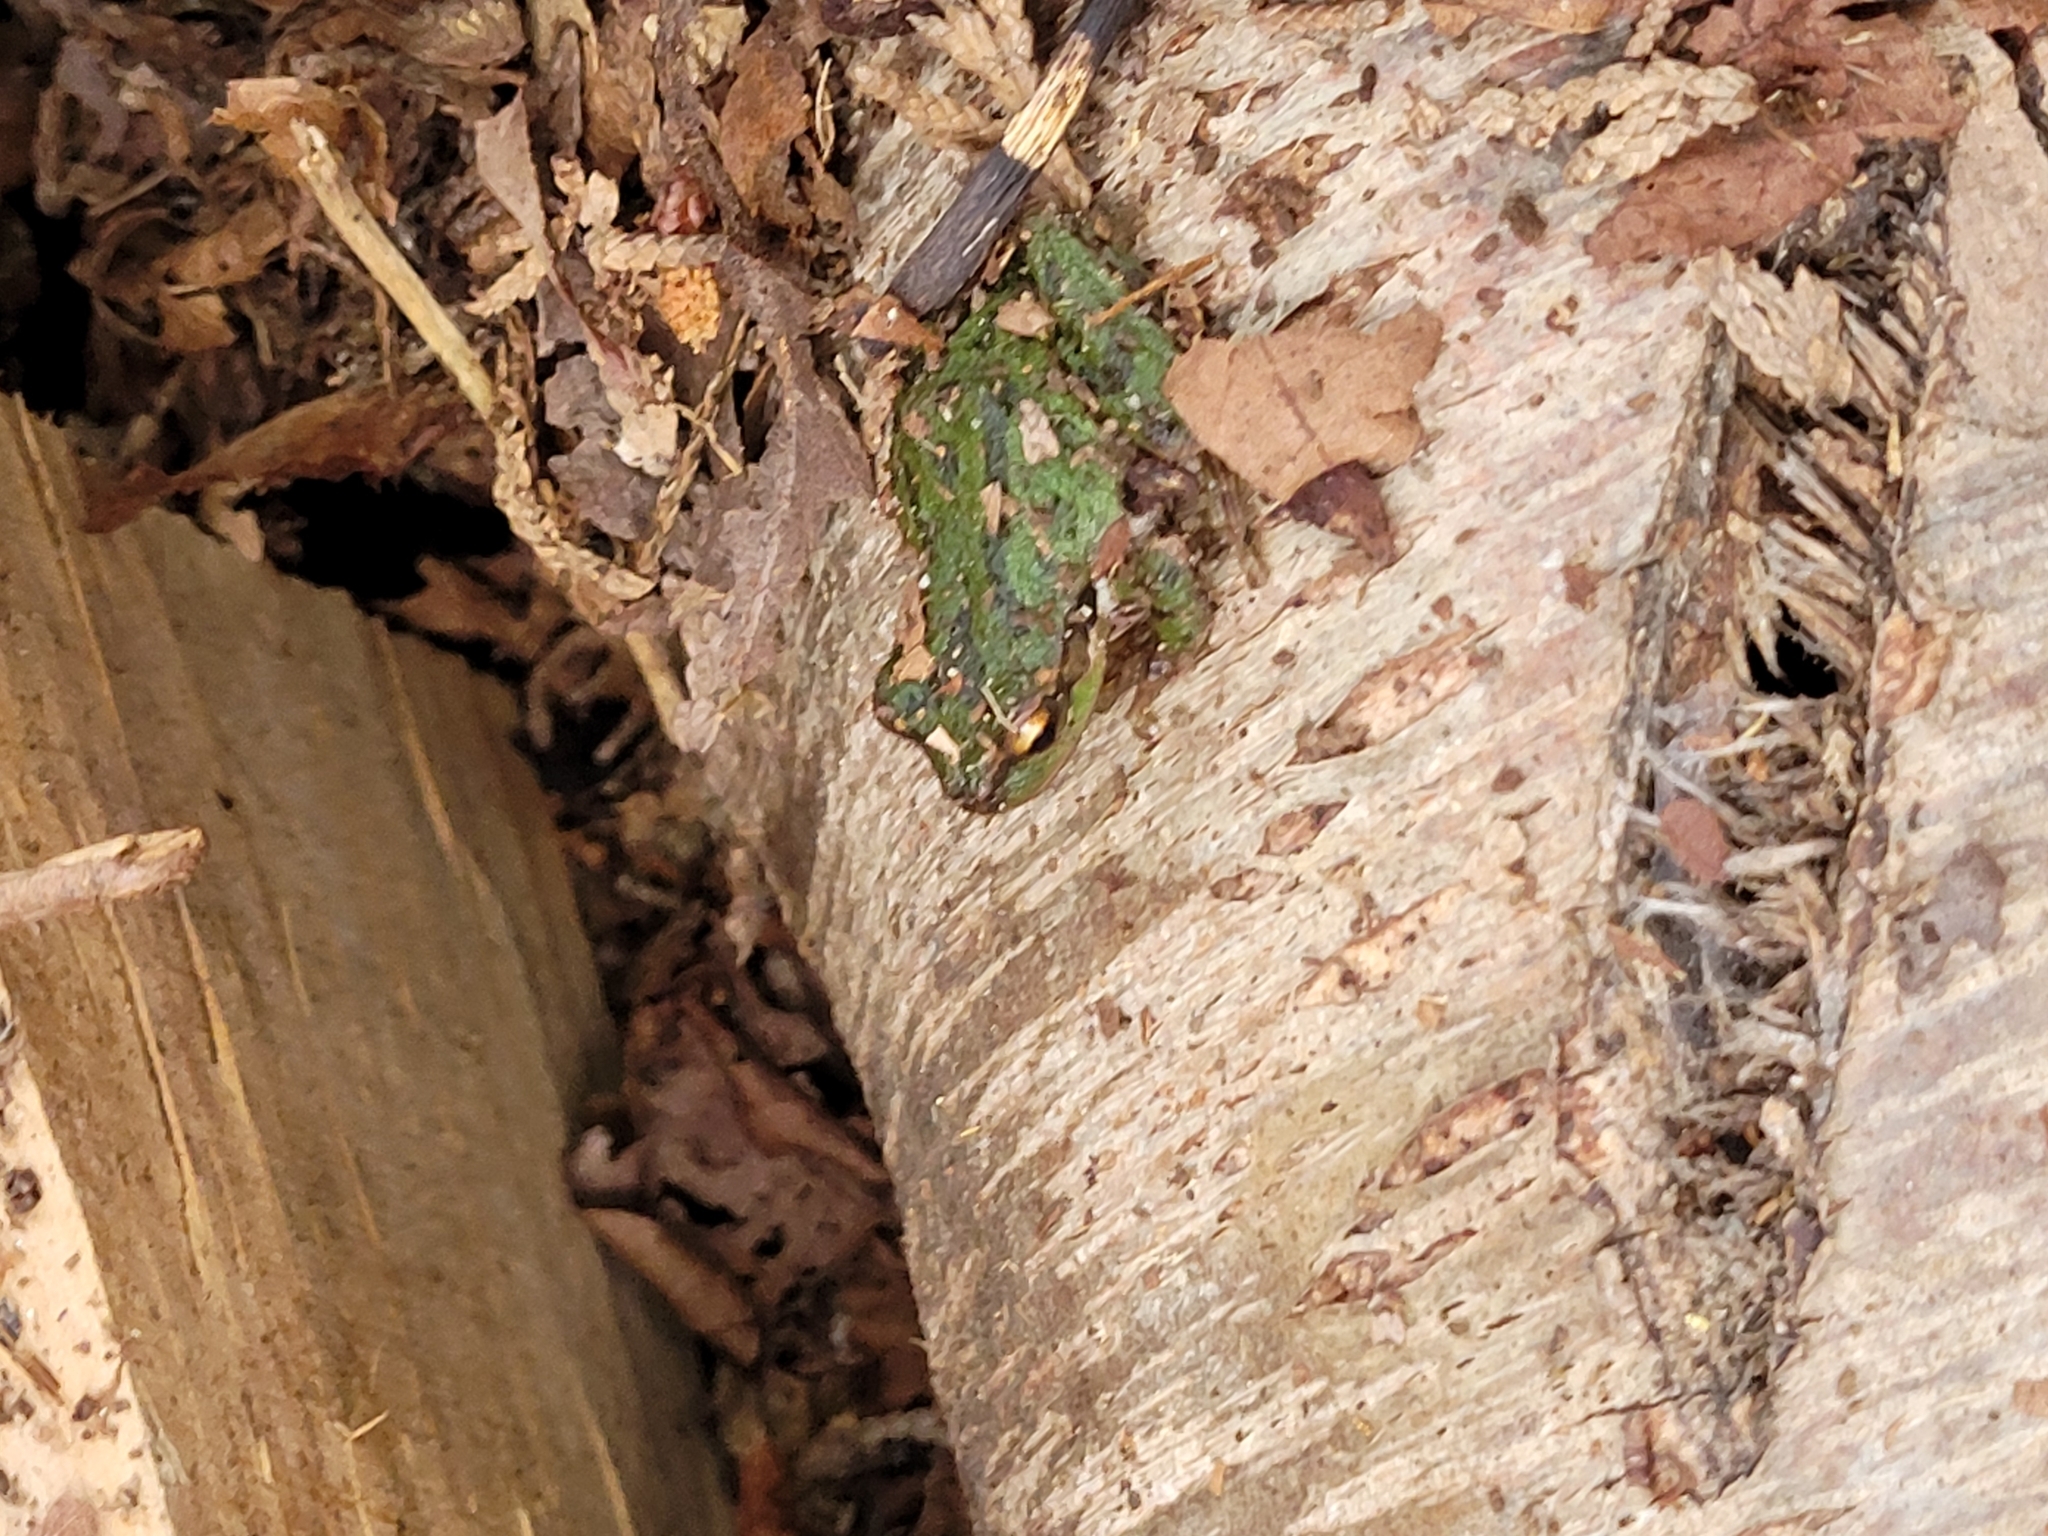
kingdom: Animalia
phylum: Chordata
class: Amphibia
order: Anura
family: Hylidae
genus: Pseudacris
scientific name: Pseudacris regilla
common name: Pacific chorus frog
